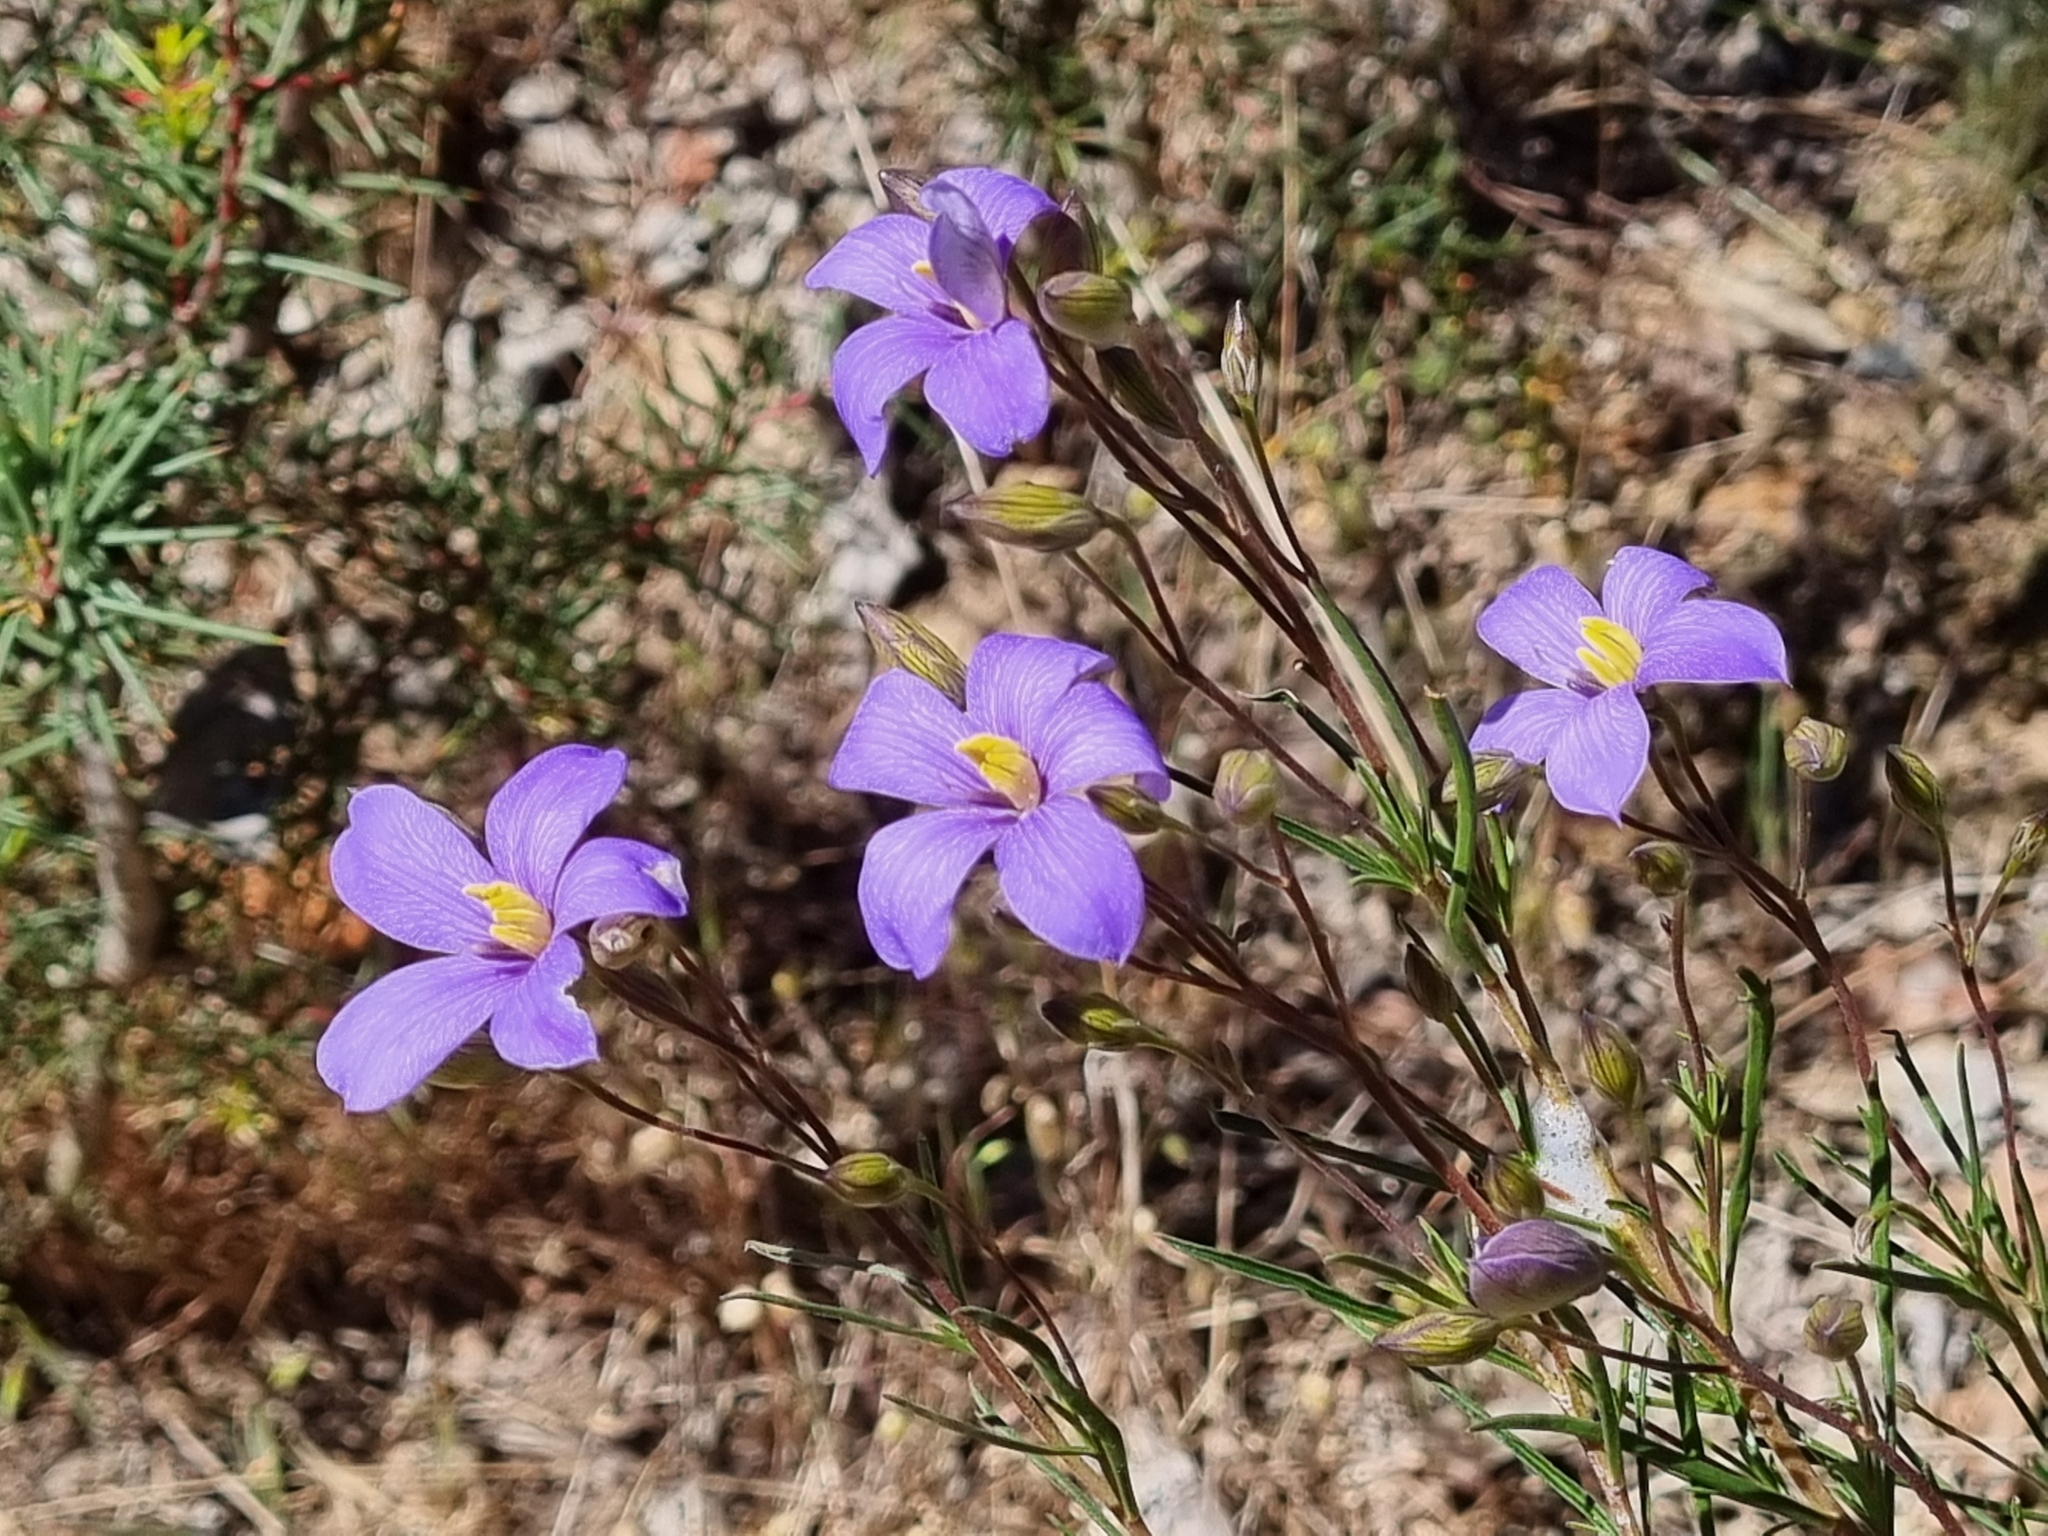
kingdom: Plantae
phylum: Tracheophyta
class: Magnoliopsida
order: Apiales
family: Pittosporaceae
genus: Cheiranthera
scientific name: Cheiranthera linearis
